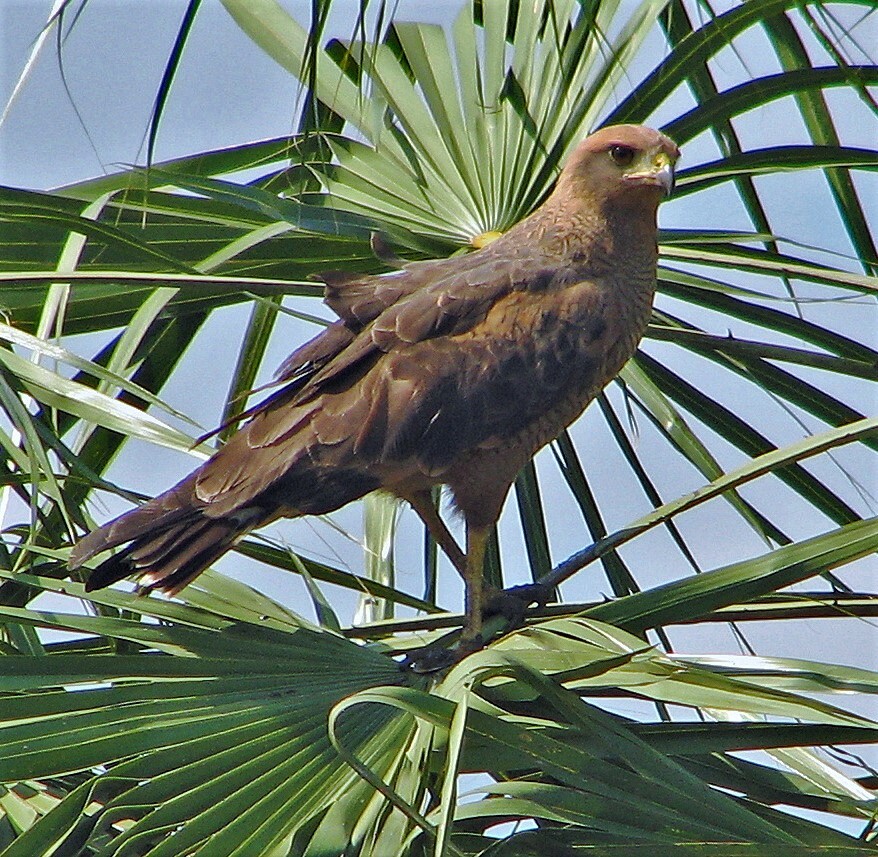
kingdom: Animalia
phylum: Chordata
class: Aves
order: Accipitriformes
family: Accipitridae
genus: Buteogallus
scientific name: Buteogallus meridionalis
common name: Savanna hawk
